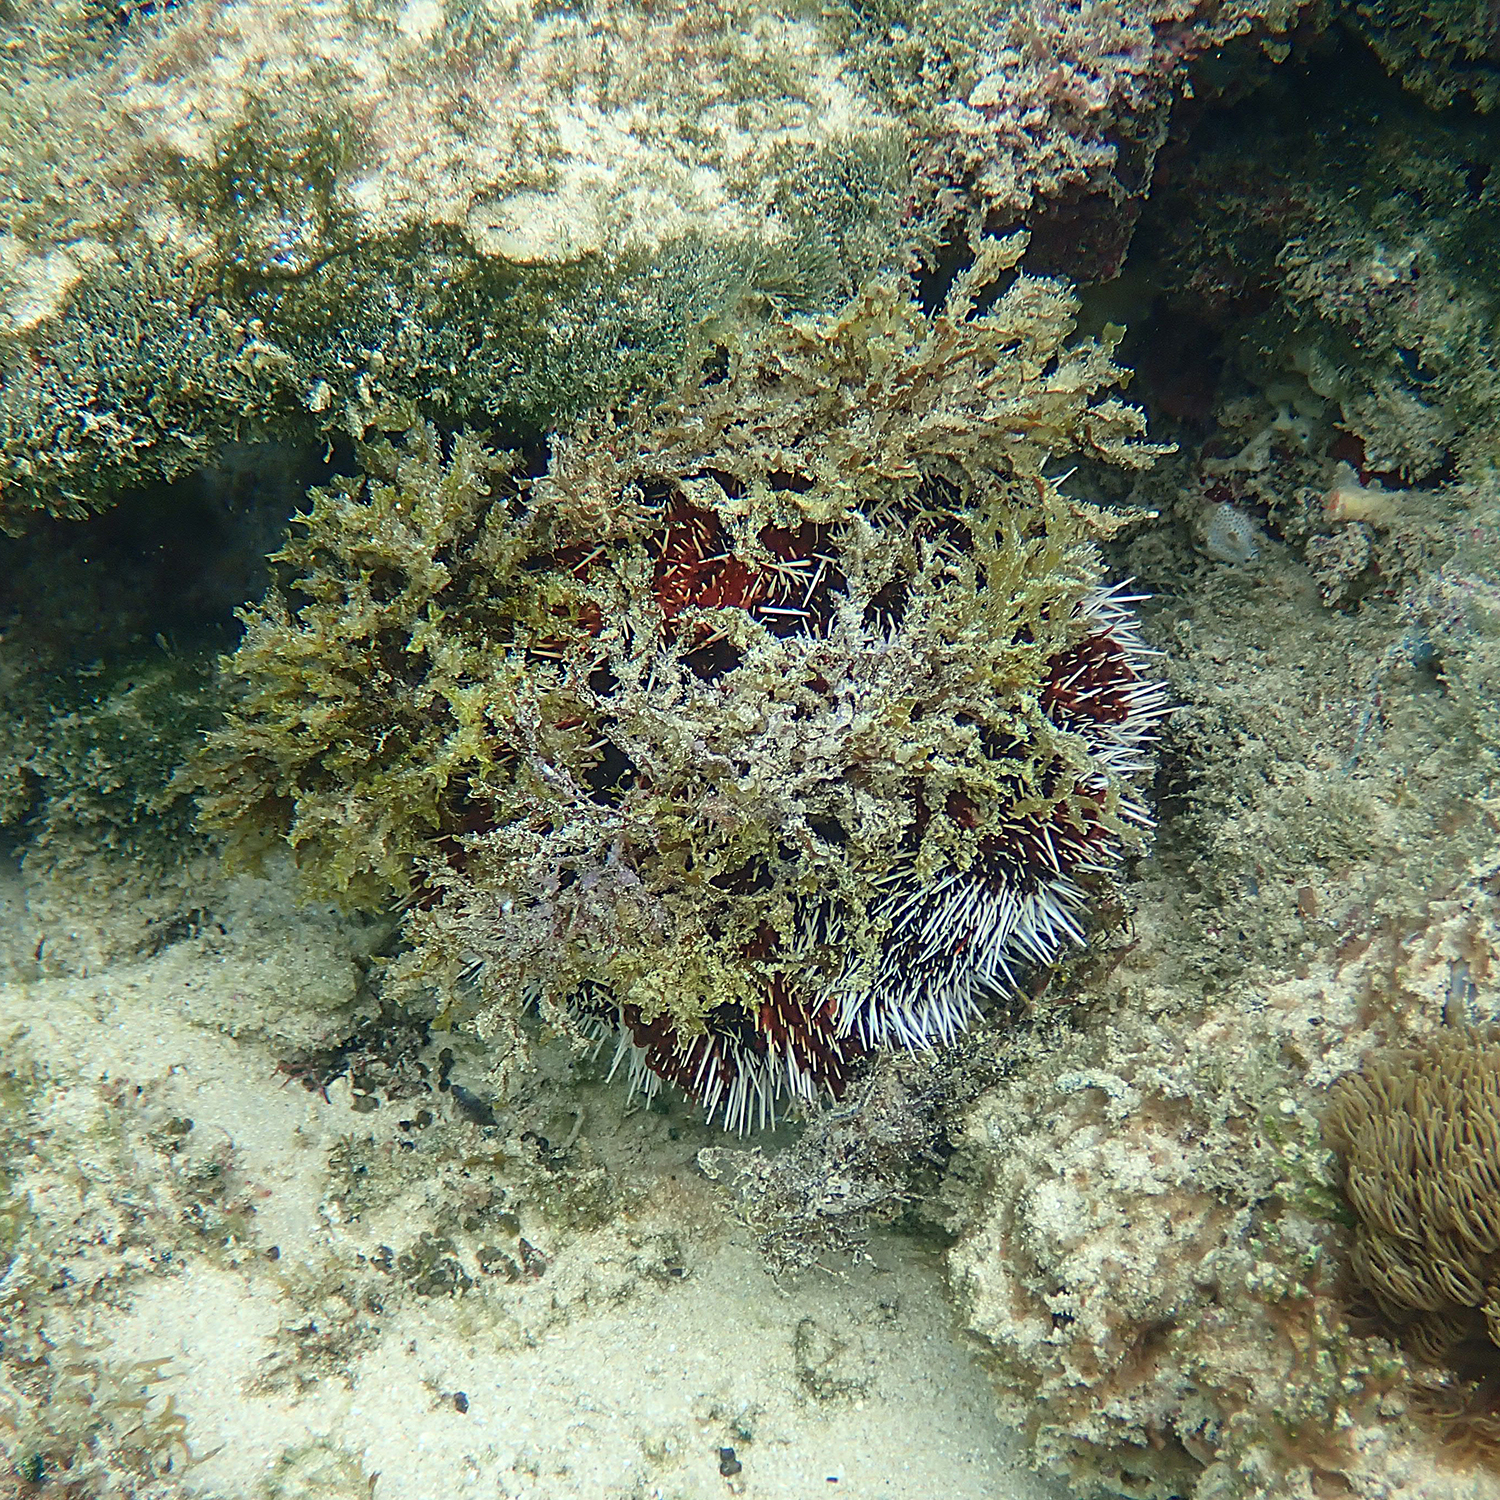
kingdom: Animalia
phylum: Echinodermata
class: Echinoidea
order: Camarodonta
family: Toxopneustidae
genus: Tripneustes
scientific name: Tripneustes gratilla
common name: Bischofsmützenseeigel
